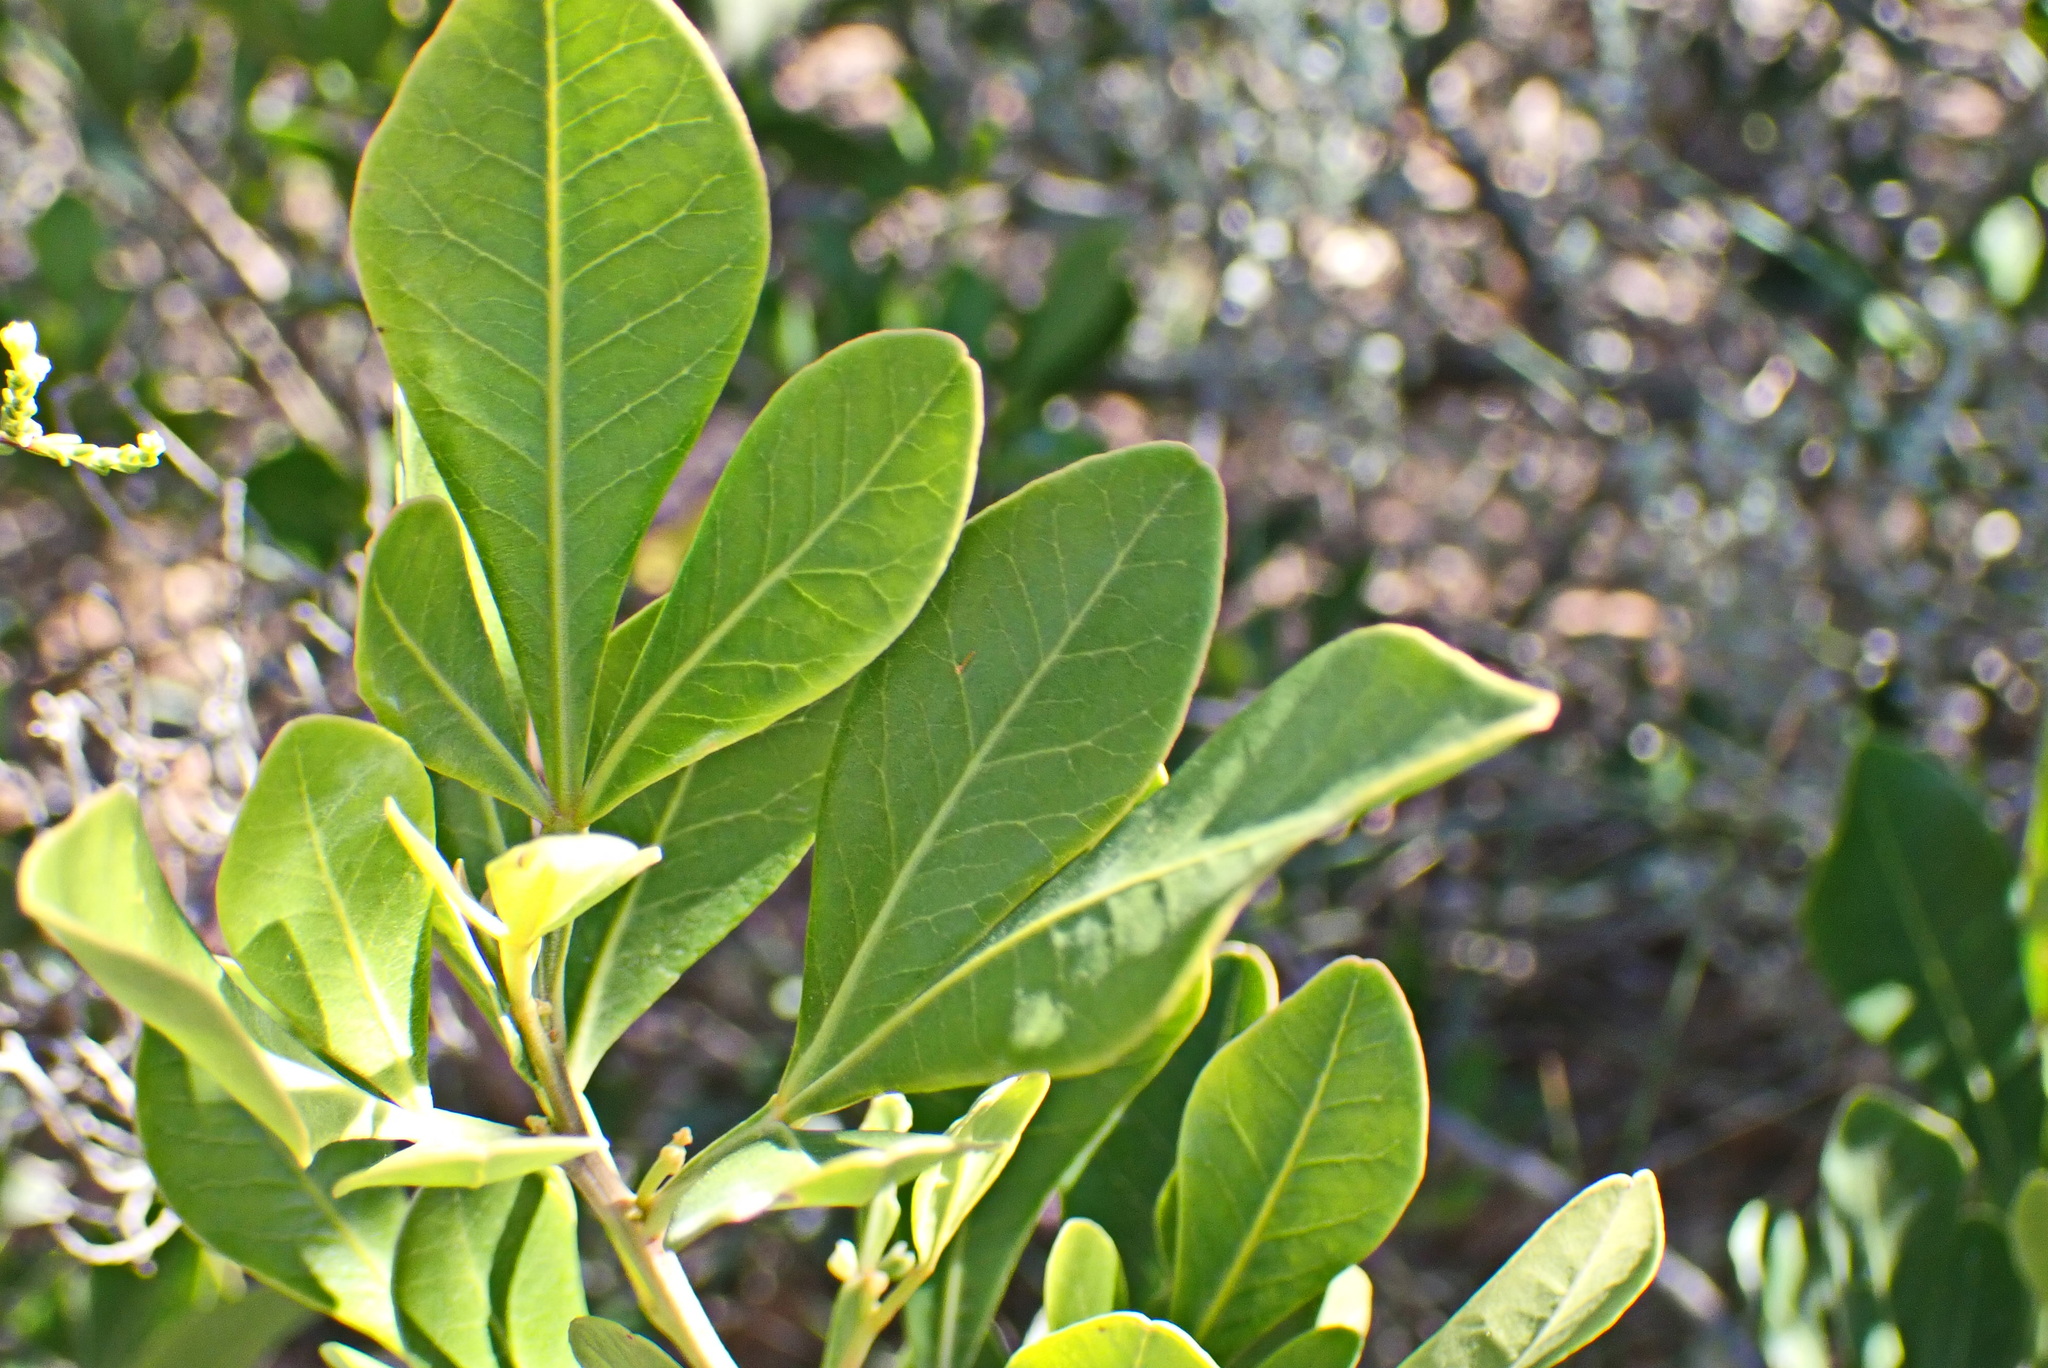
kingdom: Plantae
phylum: Tracheophyta
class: Magnoliopsida
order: Sapindales
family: Anacardiaceae
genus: Searsia
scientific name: Searsia lucida
